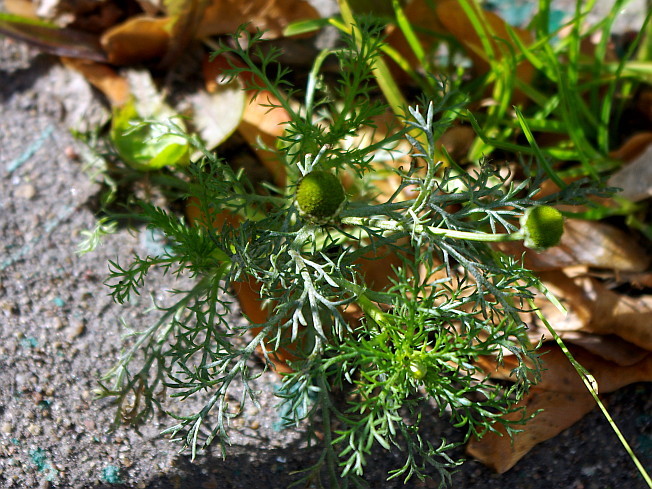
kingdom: Plantae
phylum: Tracheophyta
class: Magnoliopsida
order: Asterales
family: Asteraceae
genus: Matricaria
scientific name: Matricaria discoidea
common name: Disc mayweed
